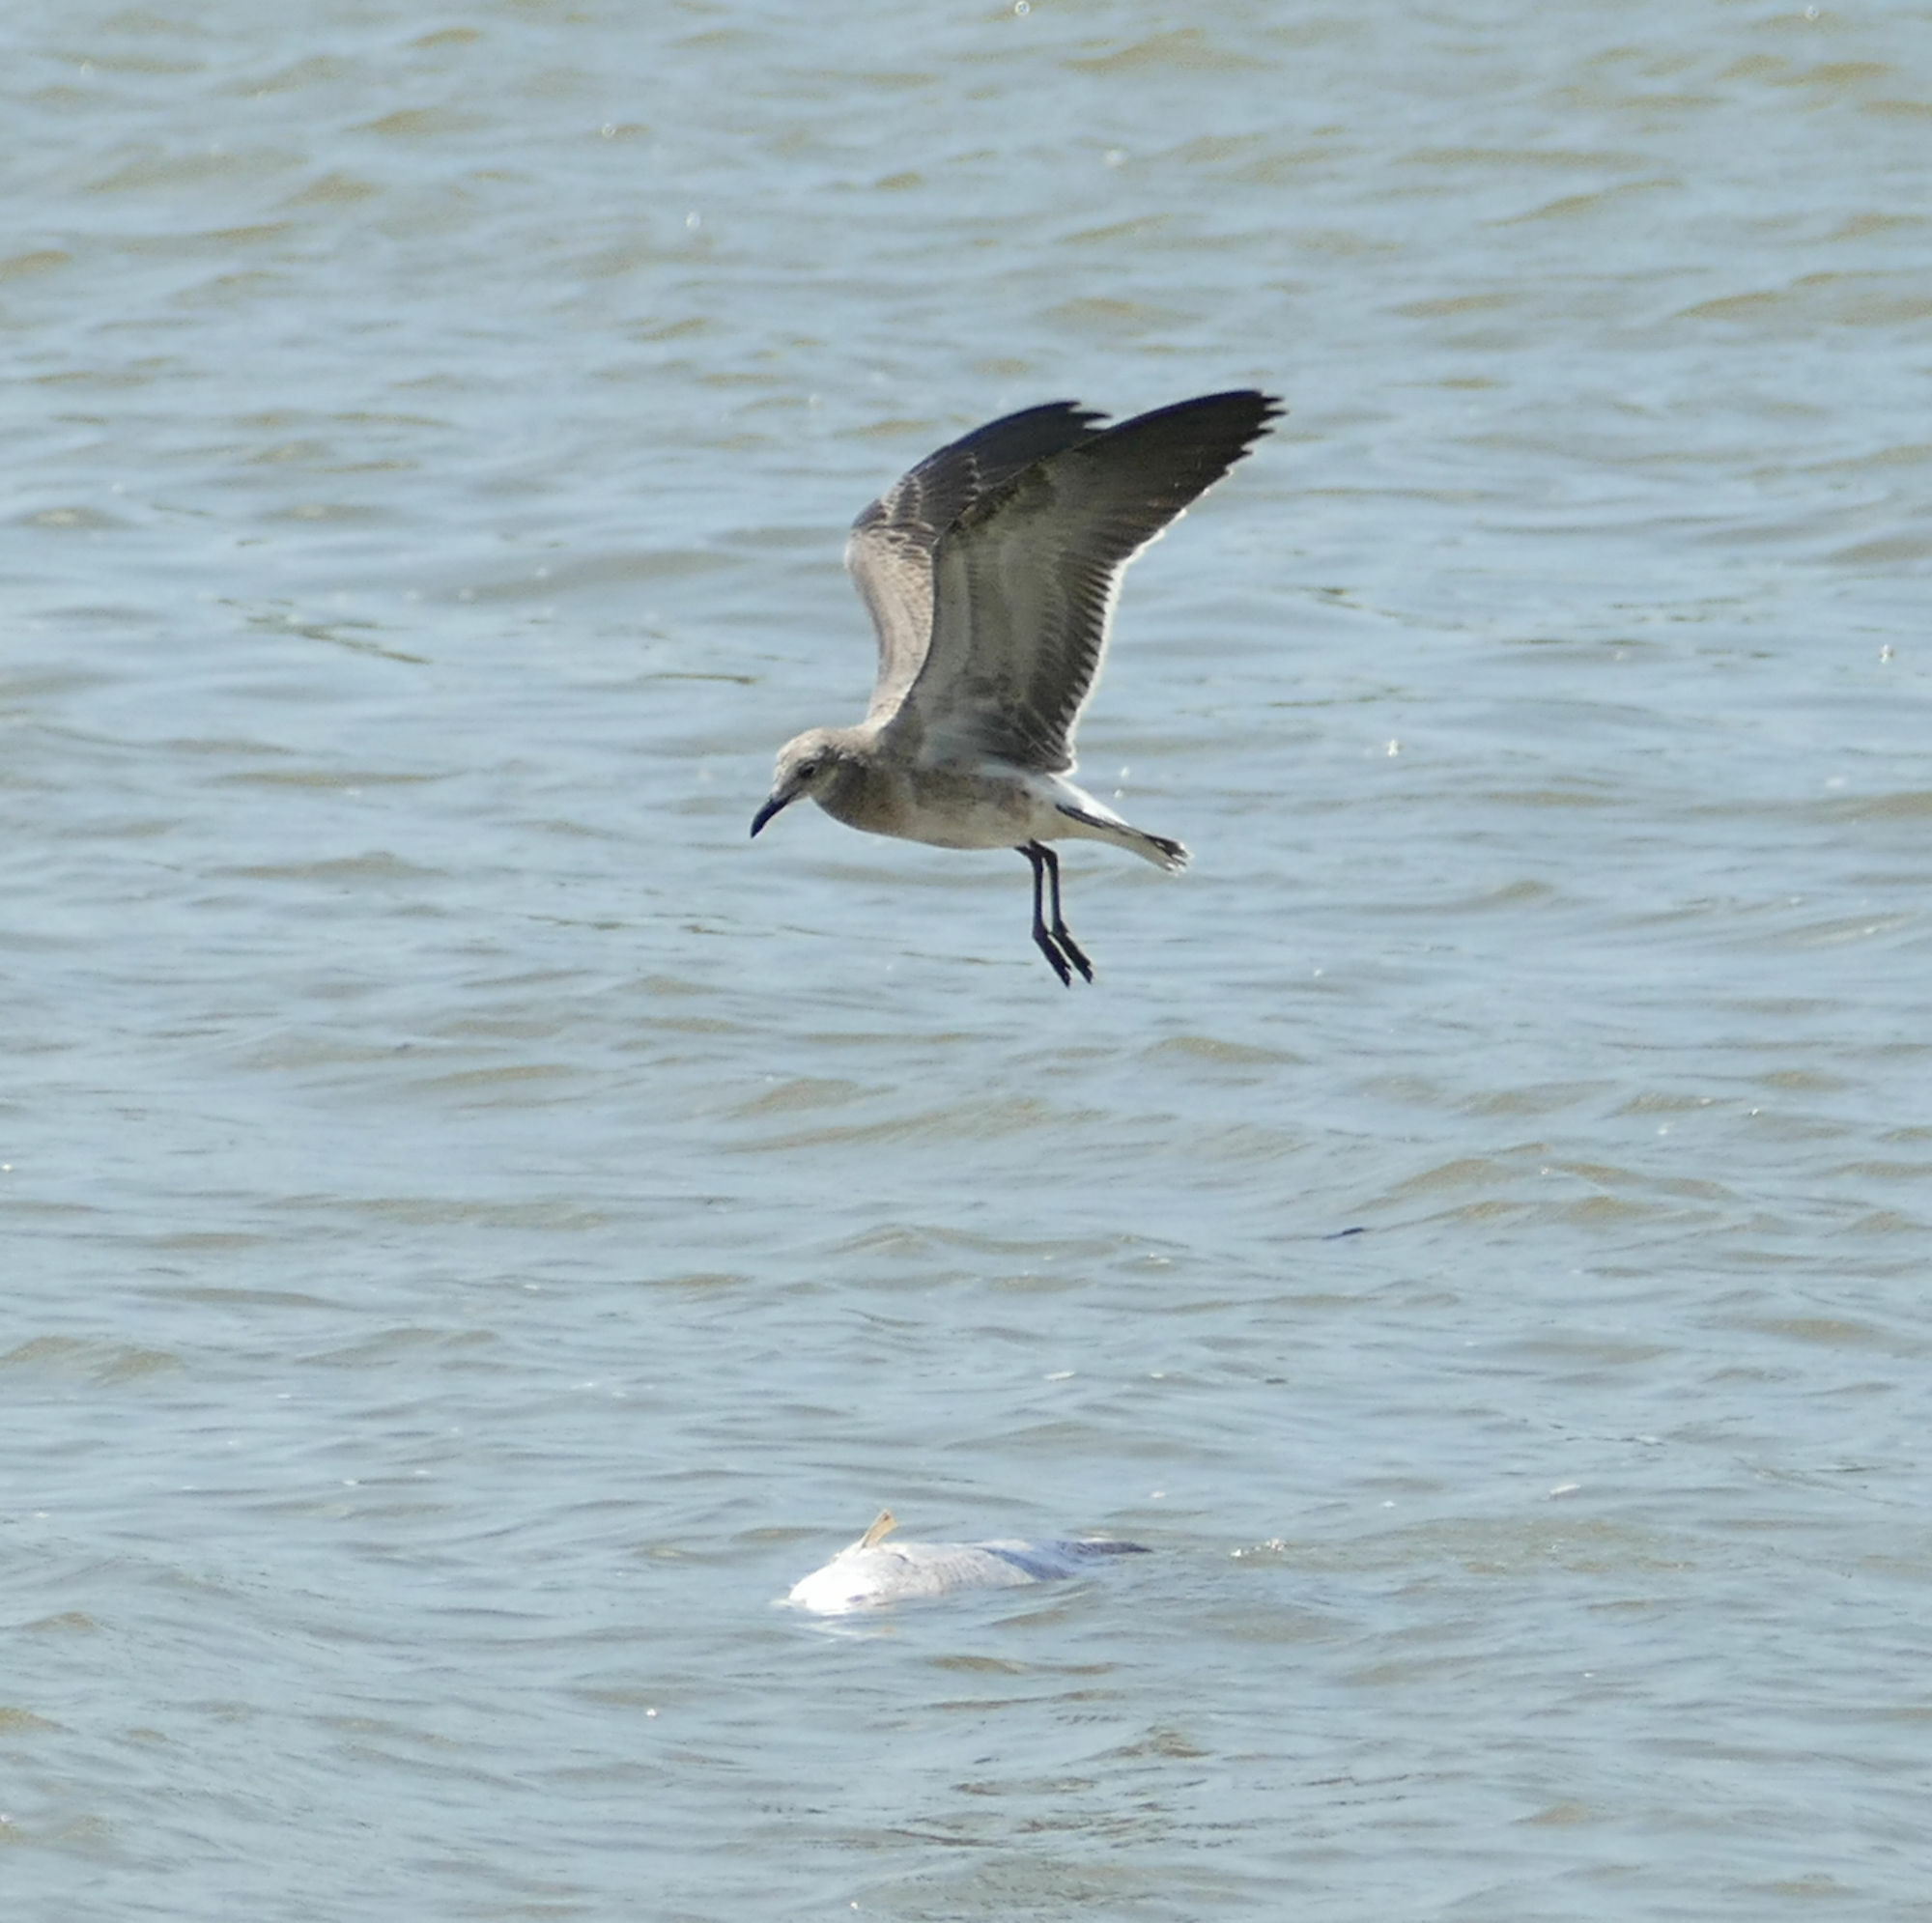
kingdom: Animalia
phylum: Chordata
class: Aves
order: Charadriiformes
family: Laridae
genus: Leucophaeus
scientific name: Leucophaeus atricilla
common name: Laughing gull
